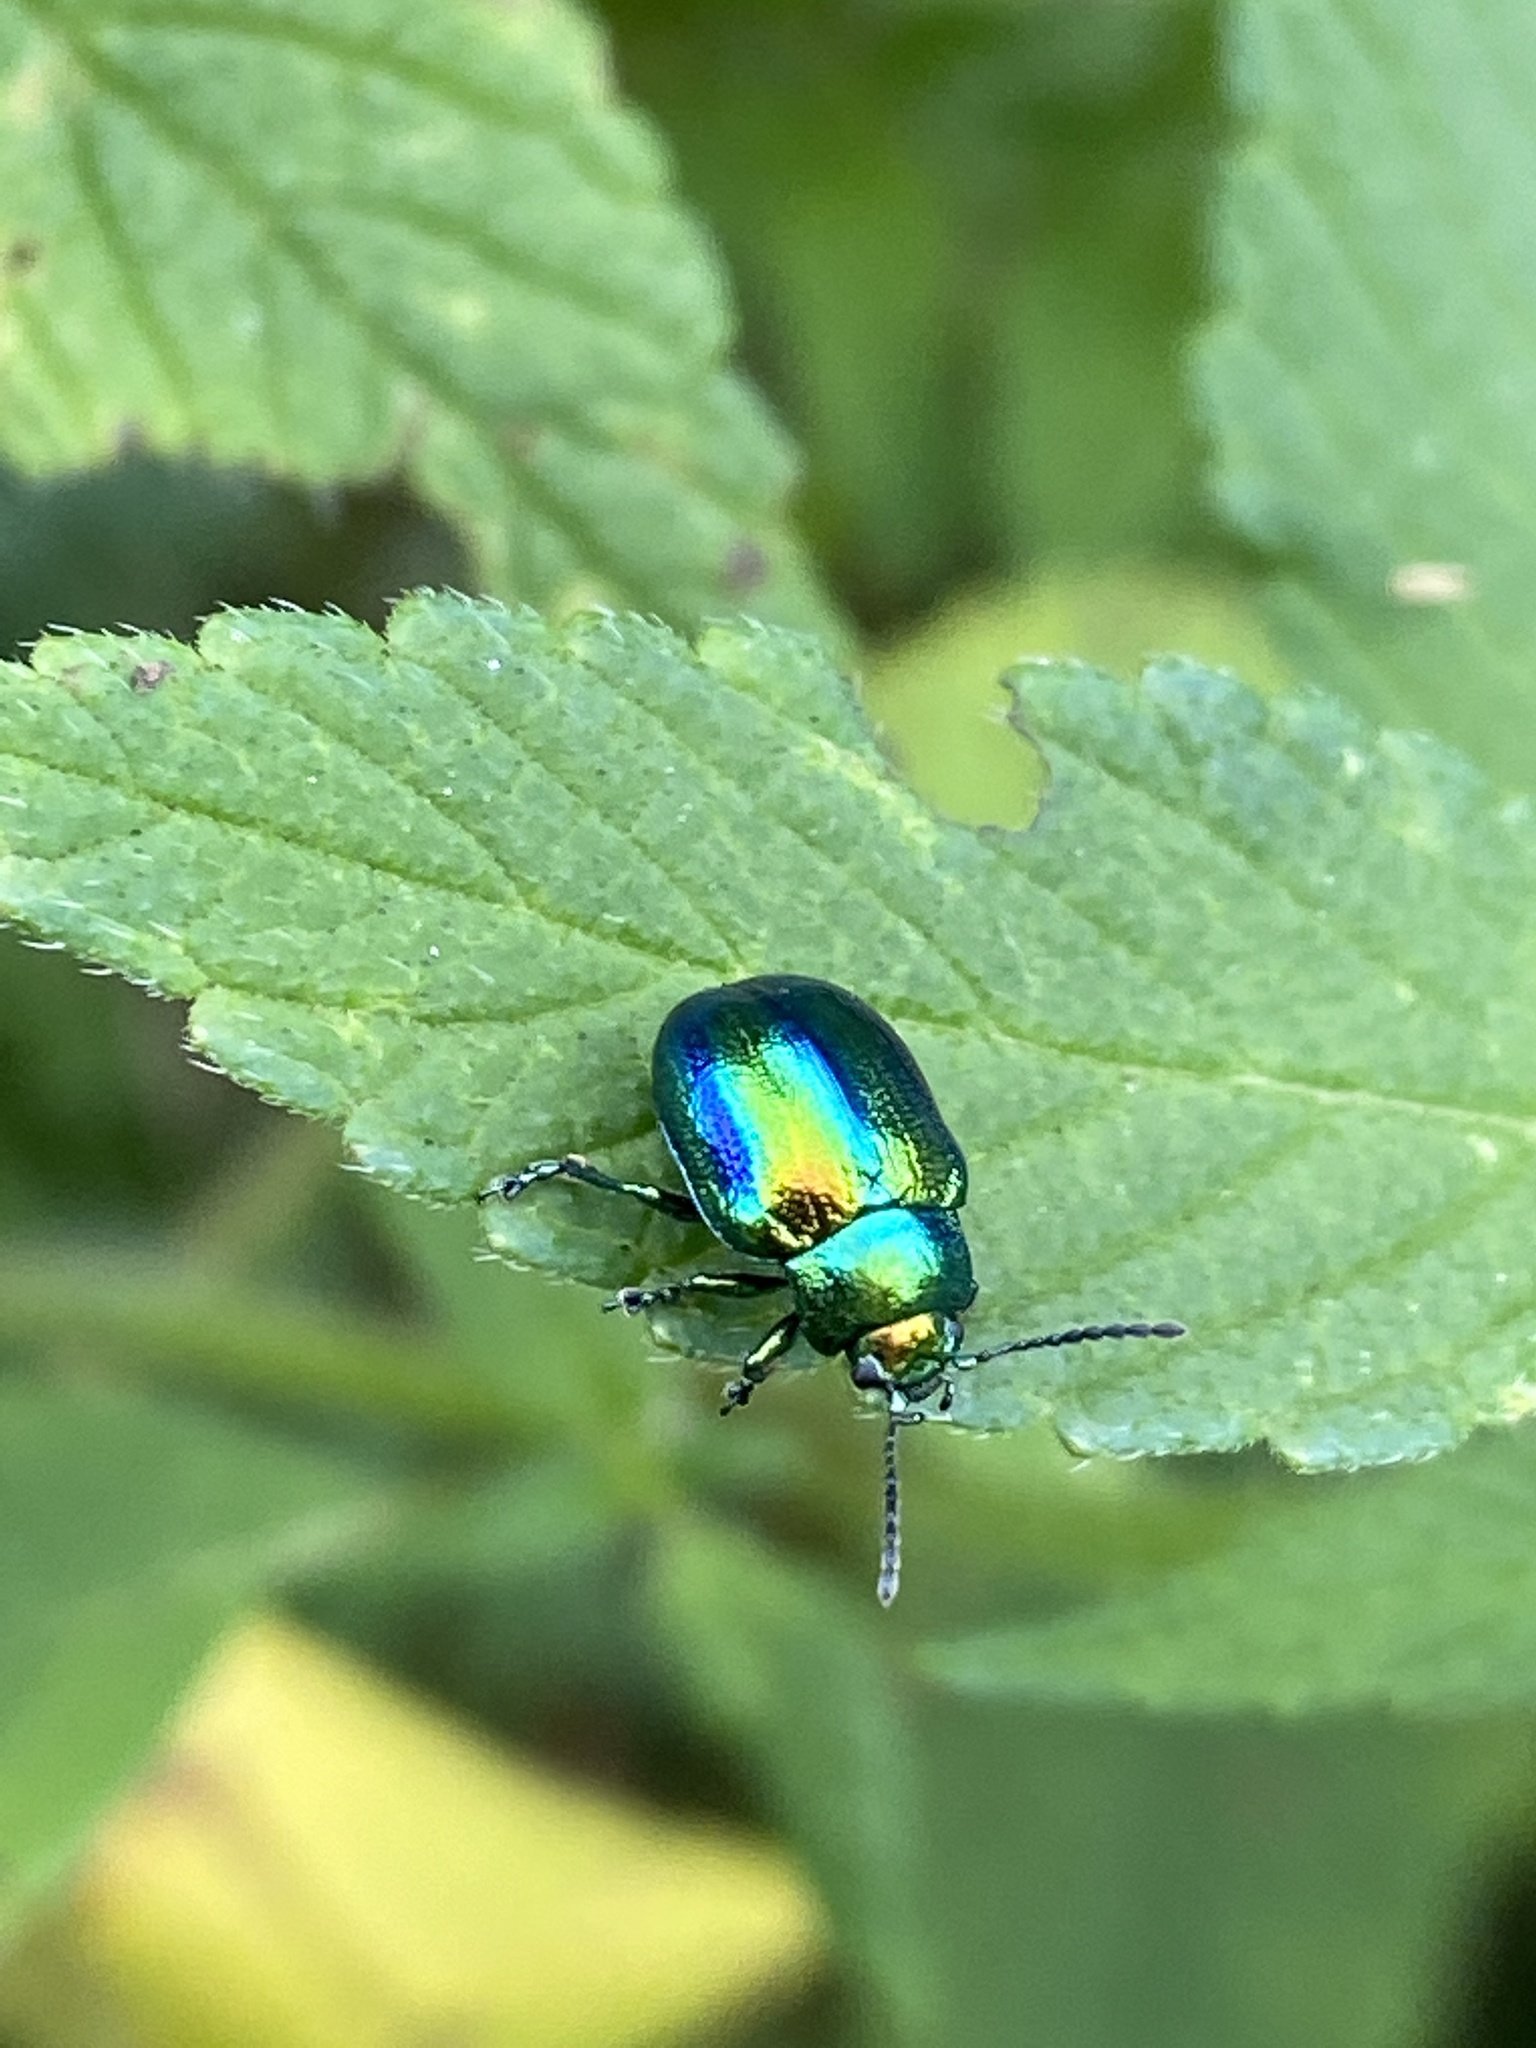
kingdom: Animalia
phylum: Arthropoda
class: Insecta
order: Coleoptera
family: Chrysomelidae
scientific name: Chrysomelidae
